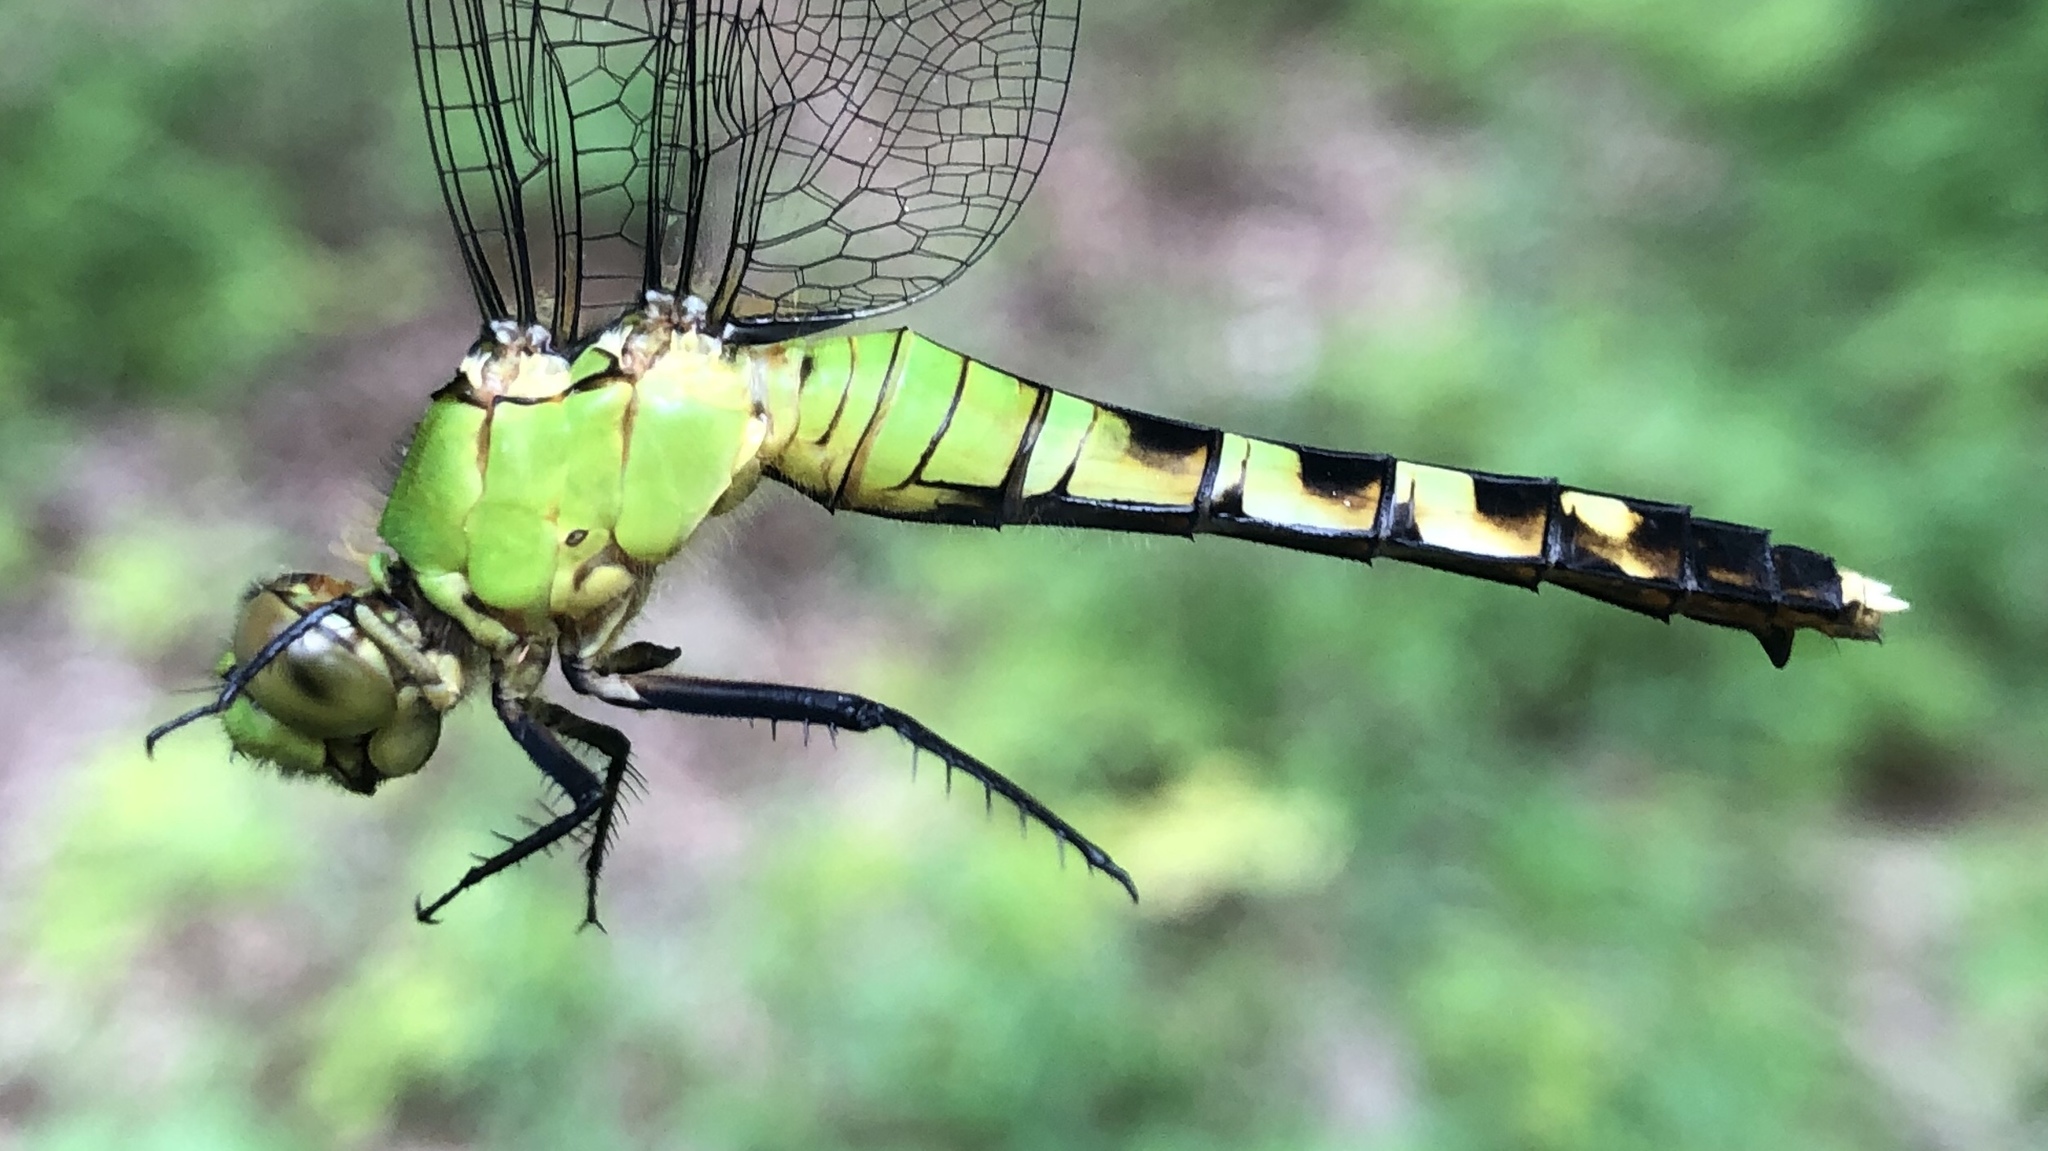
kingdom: Animalia
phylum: Arthropoda
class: Insecta
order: Odonata
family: Libellulidae
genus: Erythemis
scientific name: Erythemis simplicicollis
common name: Eastern pondhawk
